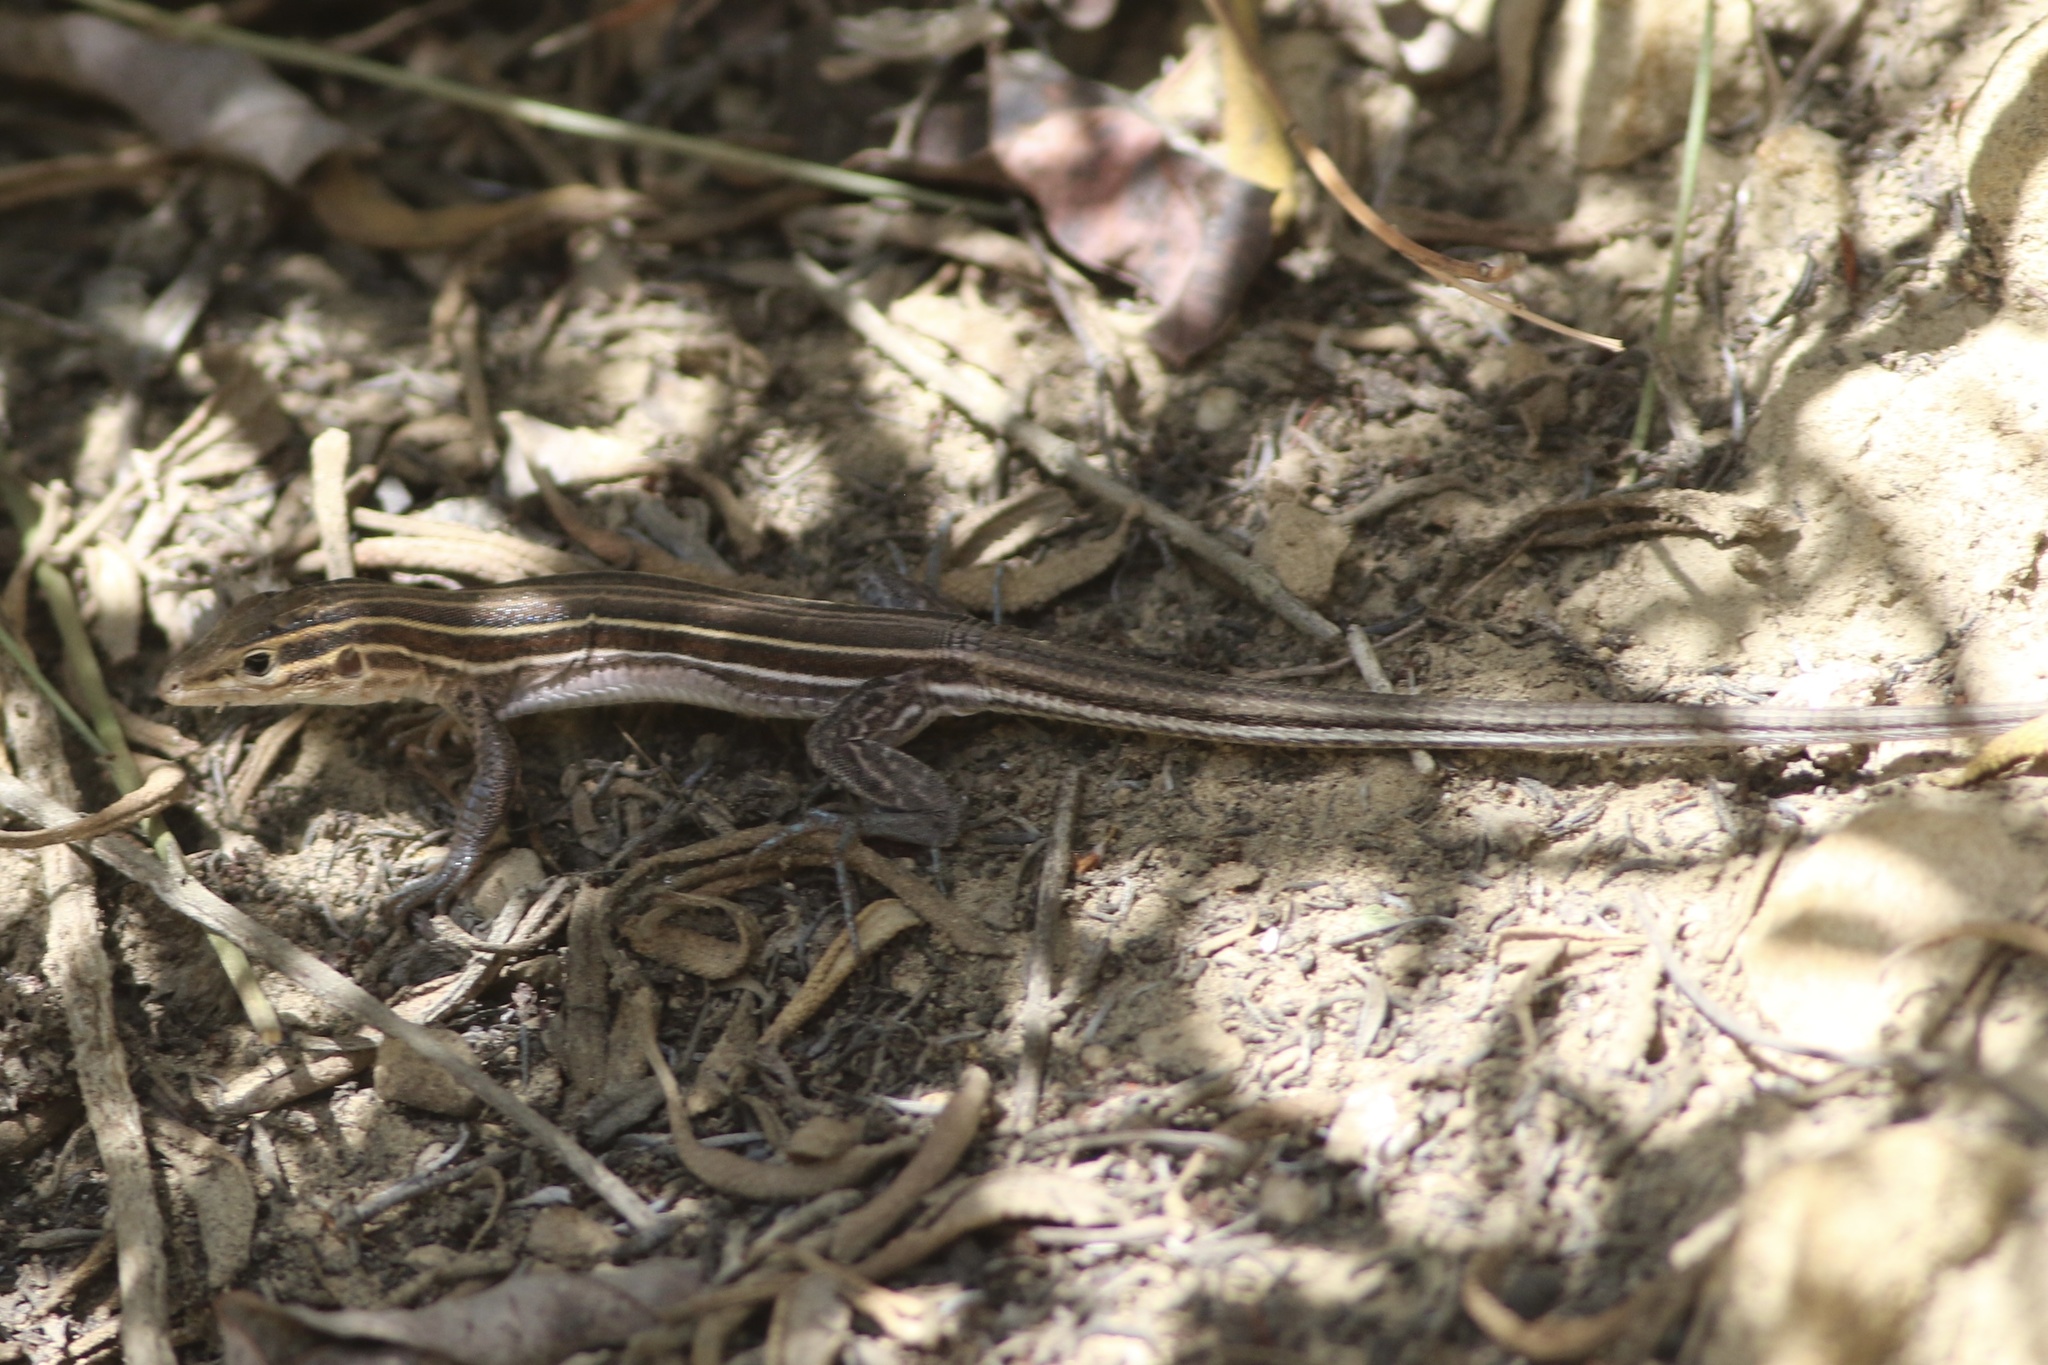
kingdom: Animalia
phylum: Chordata
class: Squamata
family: Teiidae
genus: Aspidoscelis
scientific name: Aspidoscelis hyperythrus
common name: Orange-throated race-runner
